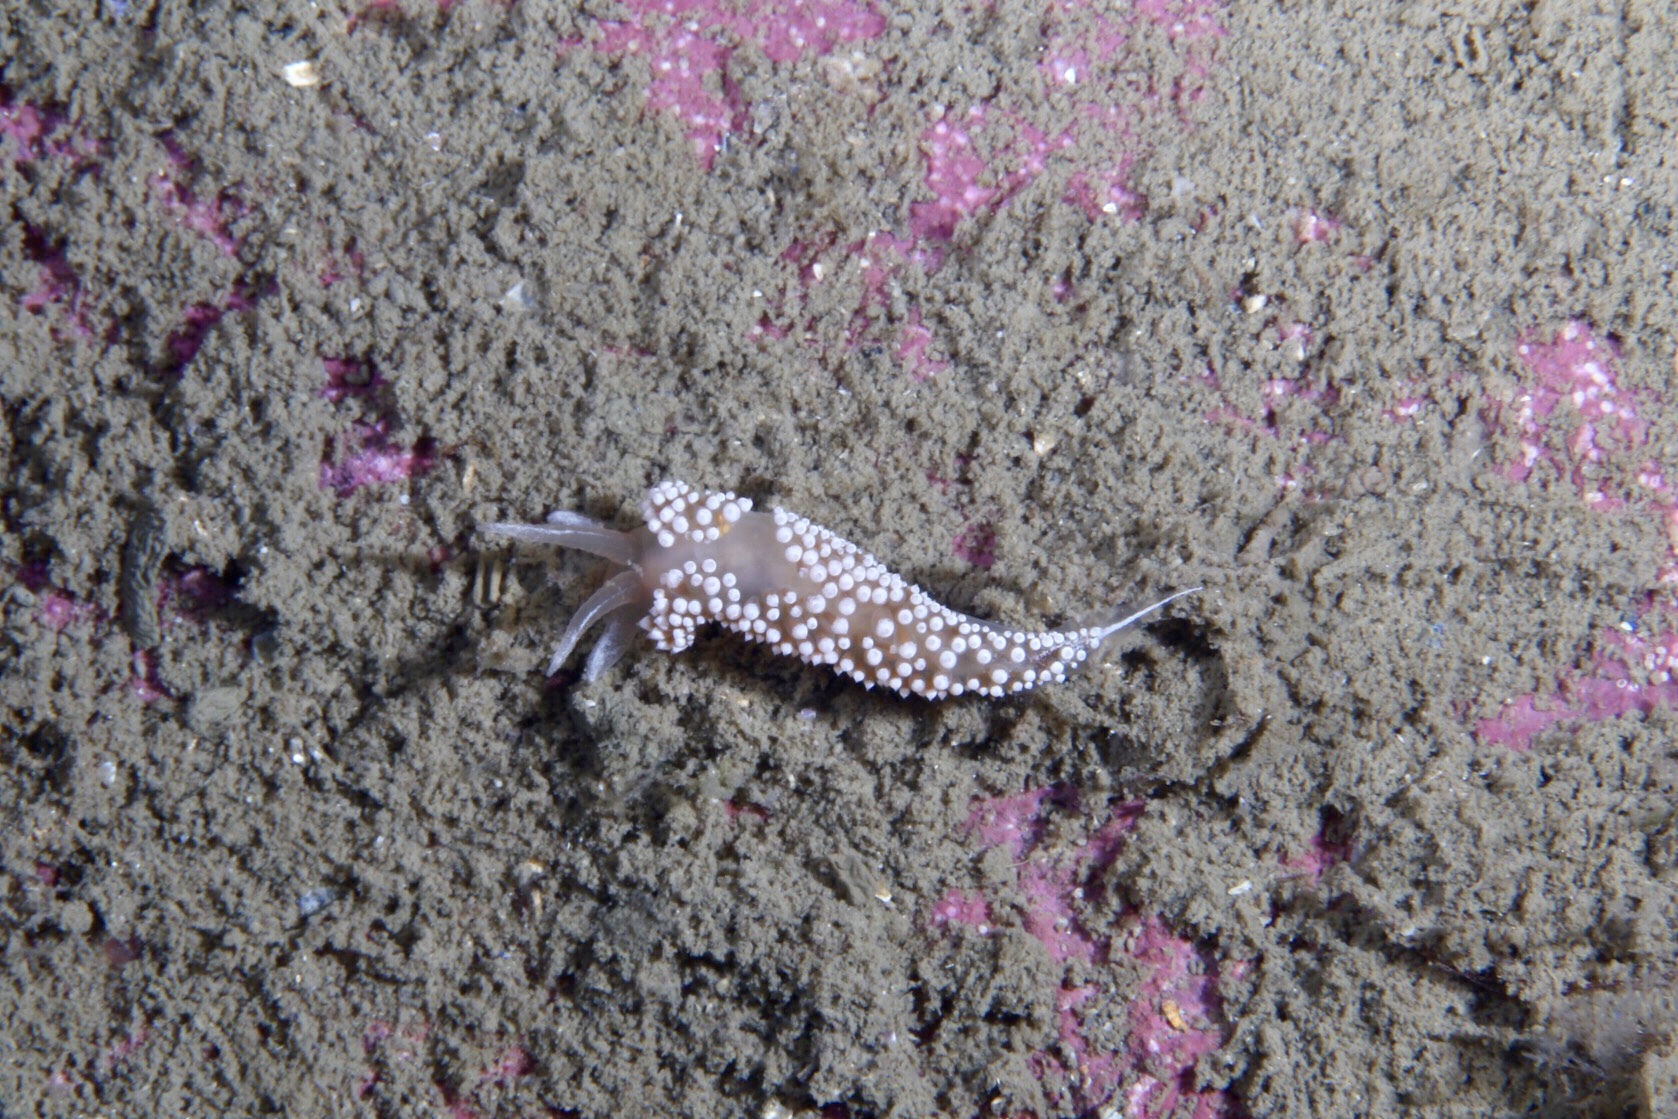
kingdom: Animalia
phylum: Mollusca
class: Gastropoda
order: Nudibranchia
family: Coryphellidae
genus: Coryphella
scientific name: Coryphella verrucosa
